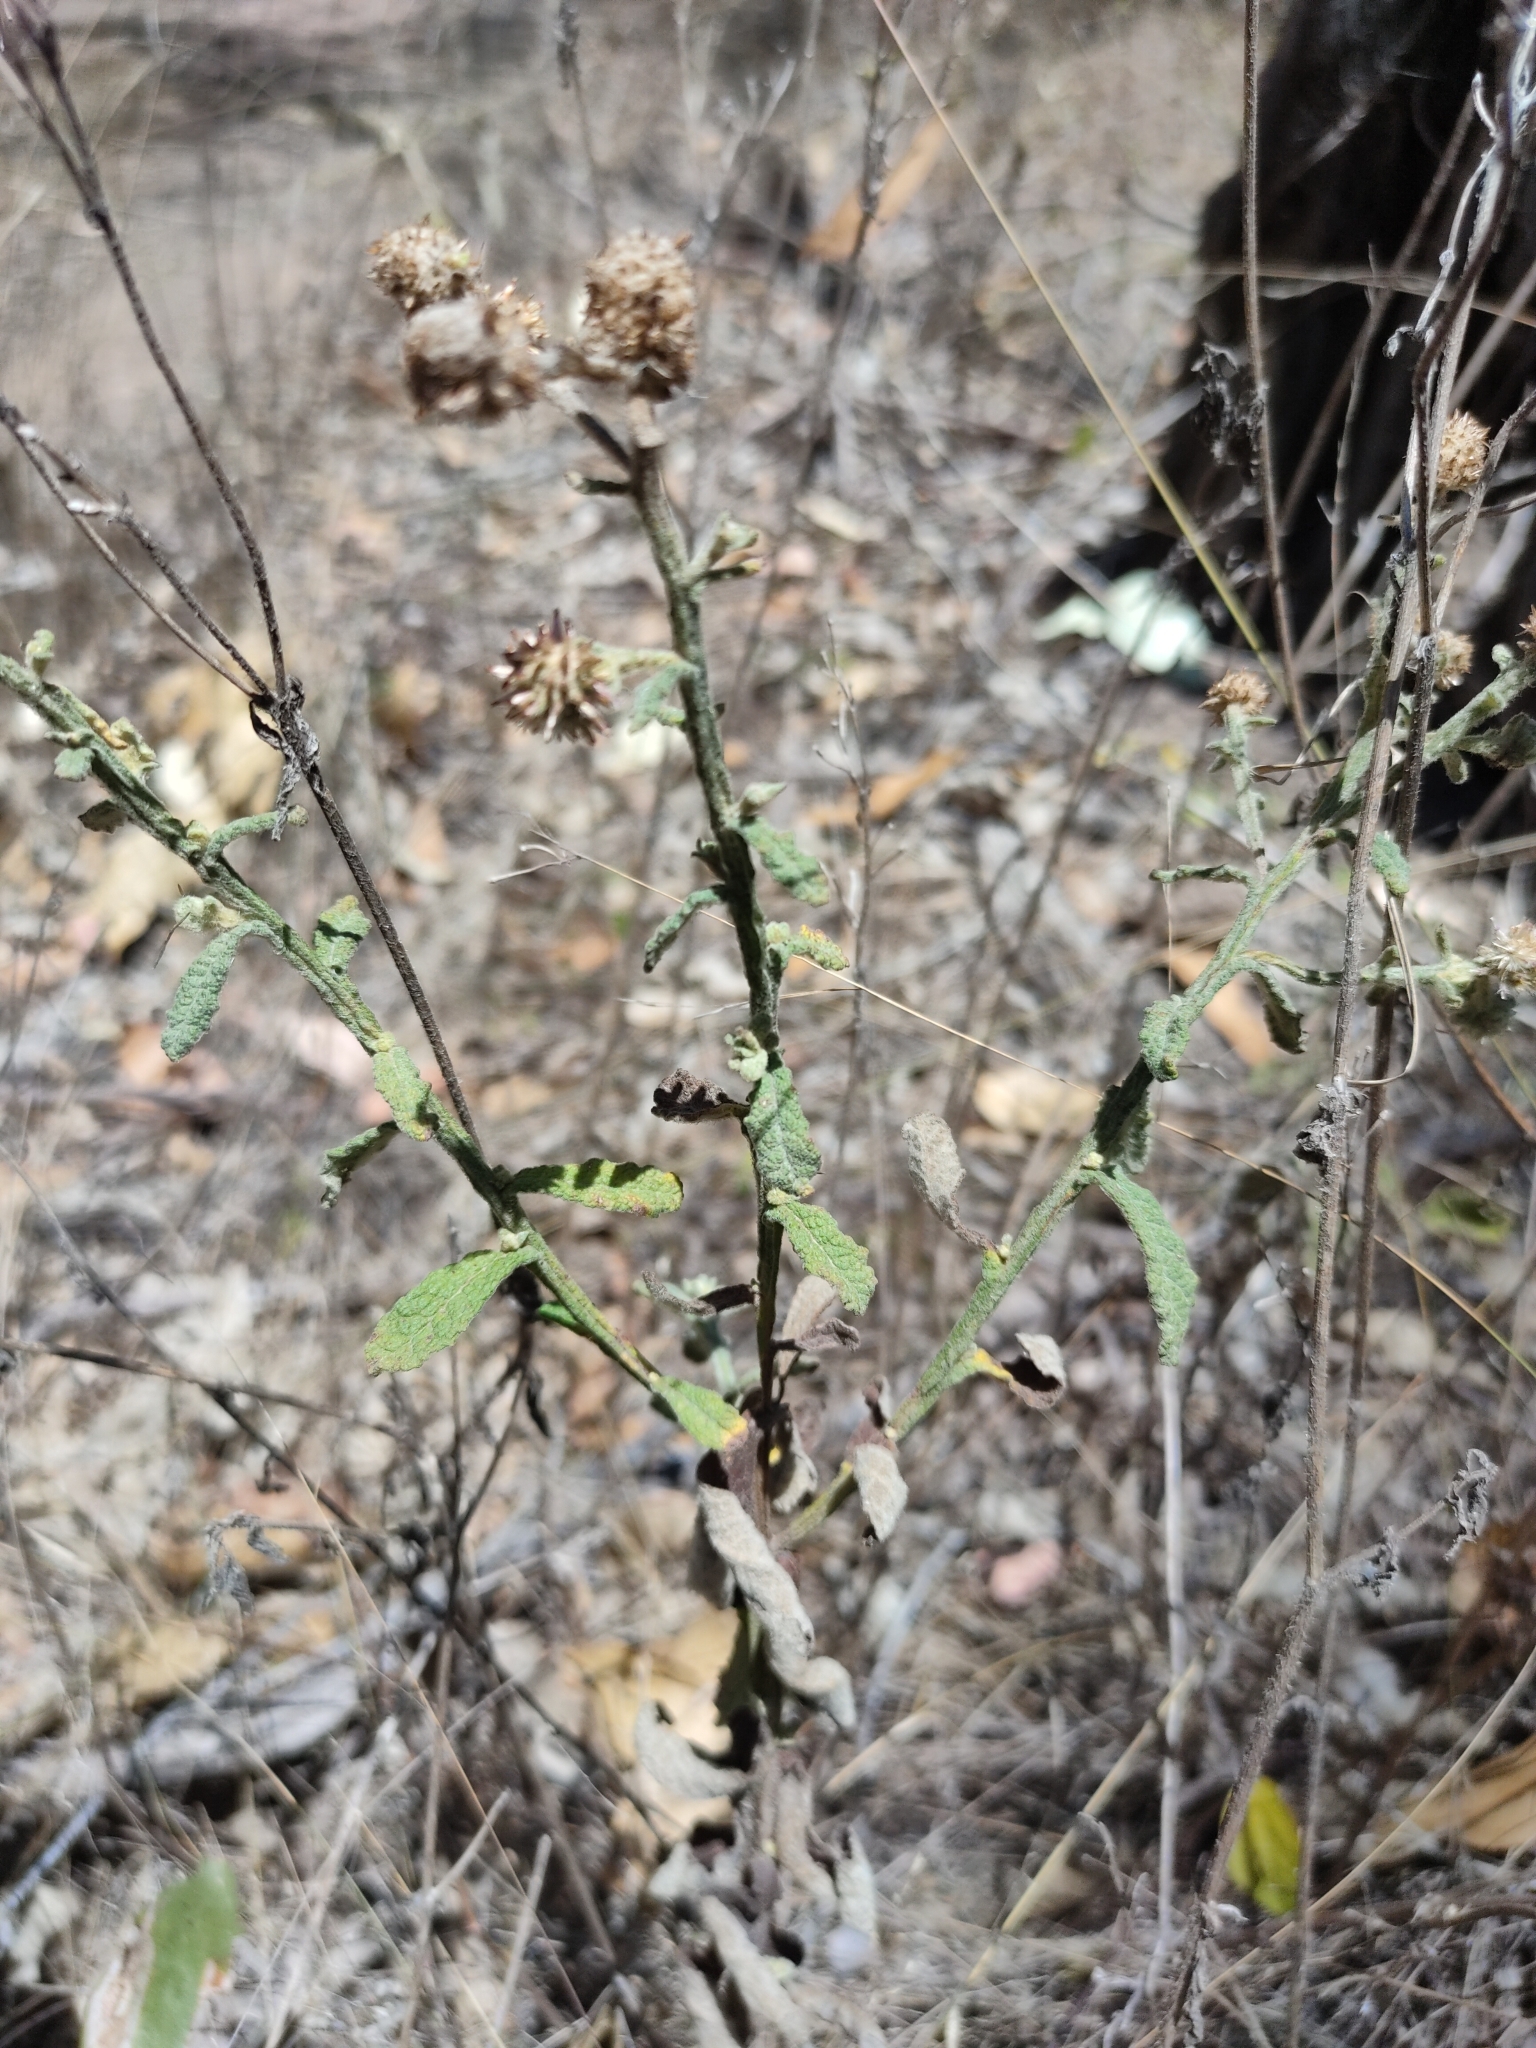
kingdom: Plantae
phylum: Tracheophyta
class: Magnoliopsida
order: Asterales
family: Asteraceae
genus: Pterocaulon
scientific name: Pterocaulon redolens
